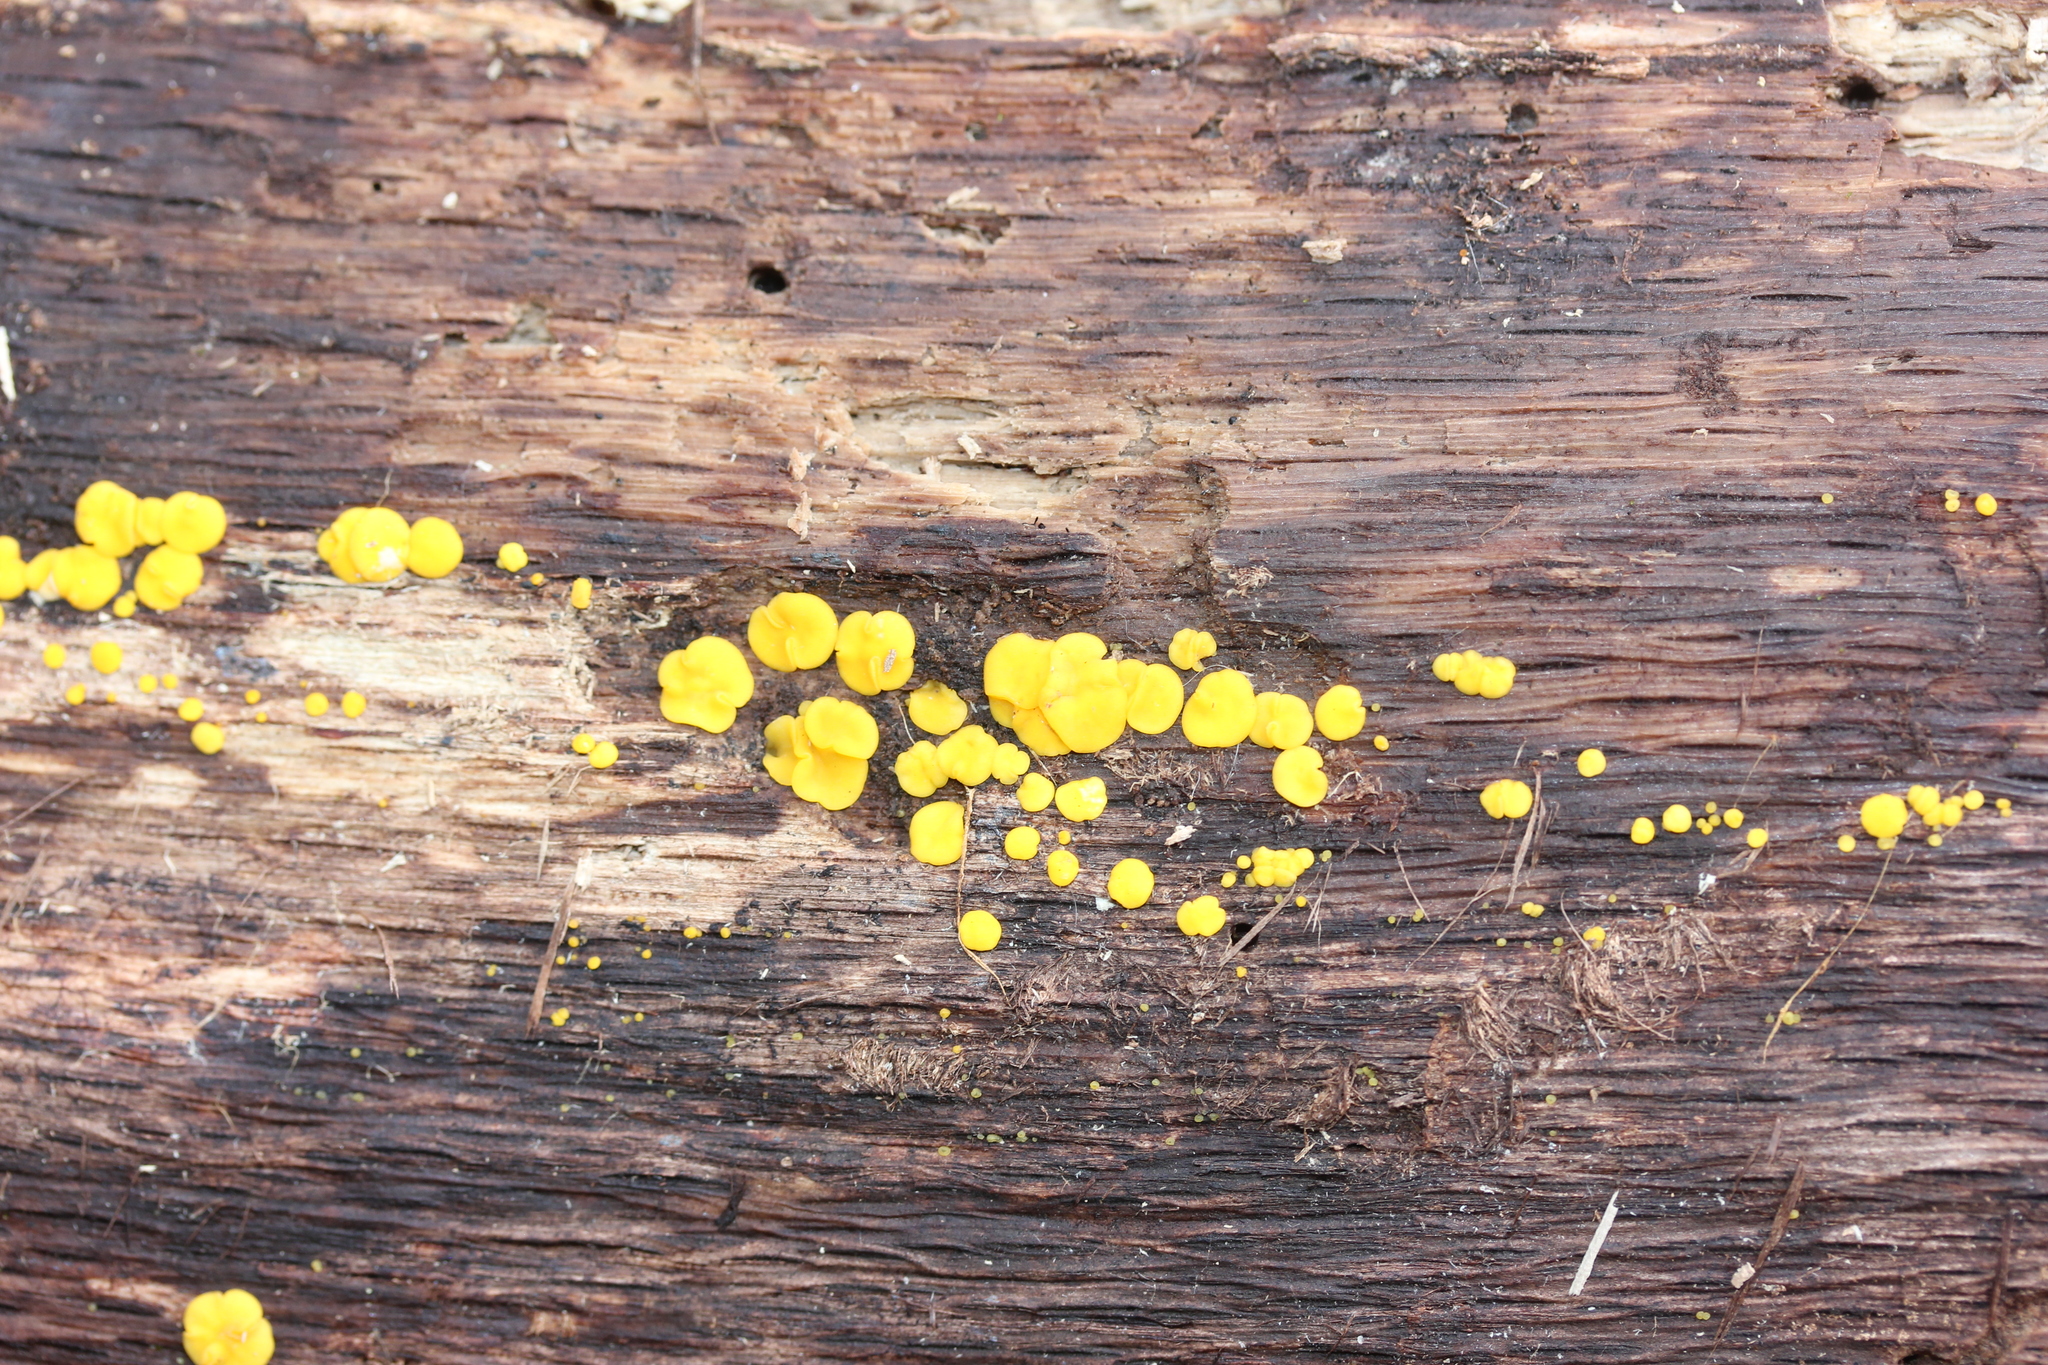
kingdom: Fungi
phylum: Ascomycota
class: Leotiomycetes
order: Helotiales
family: Pezizellaceae
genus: Calycina
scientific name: Calycina citrina
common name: Yellow fairy cups
